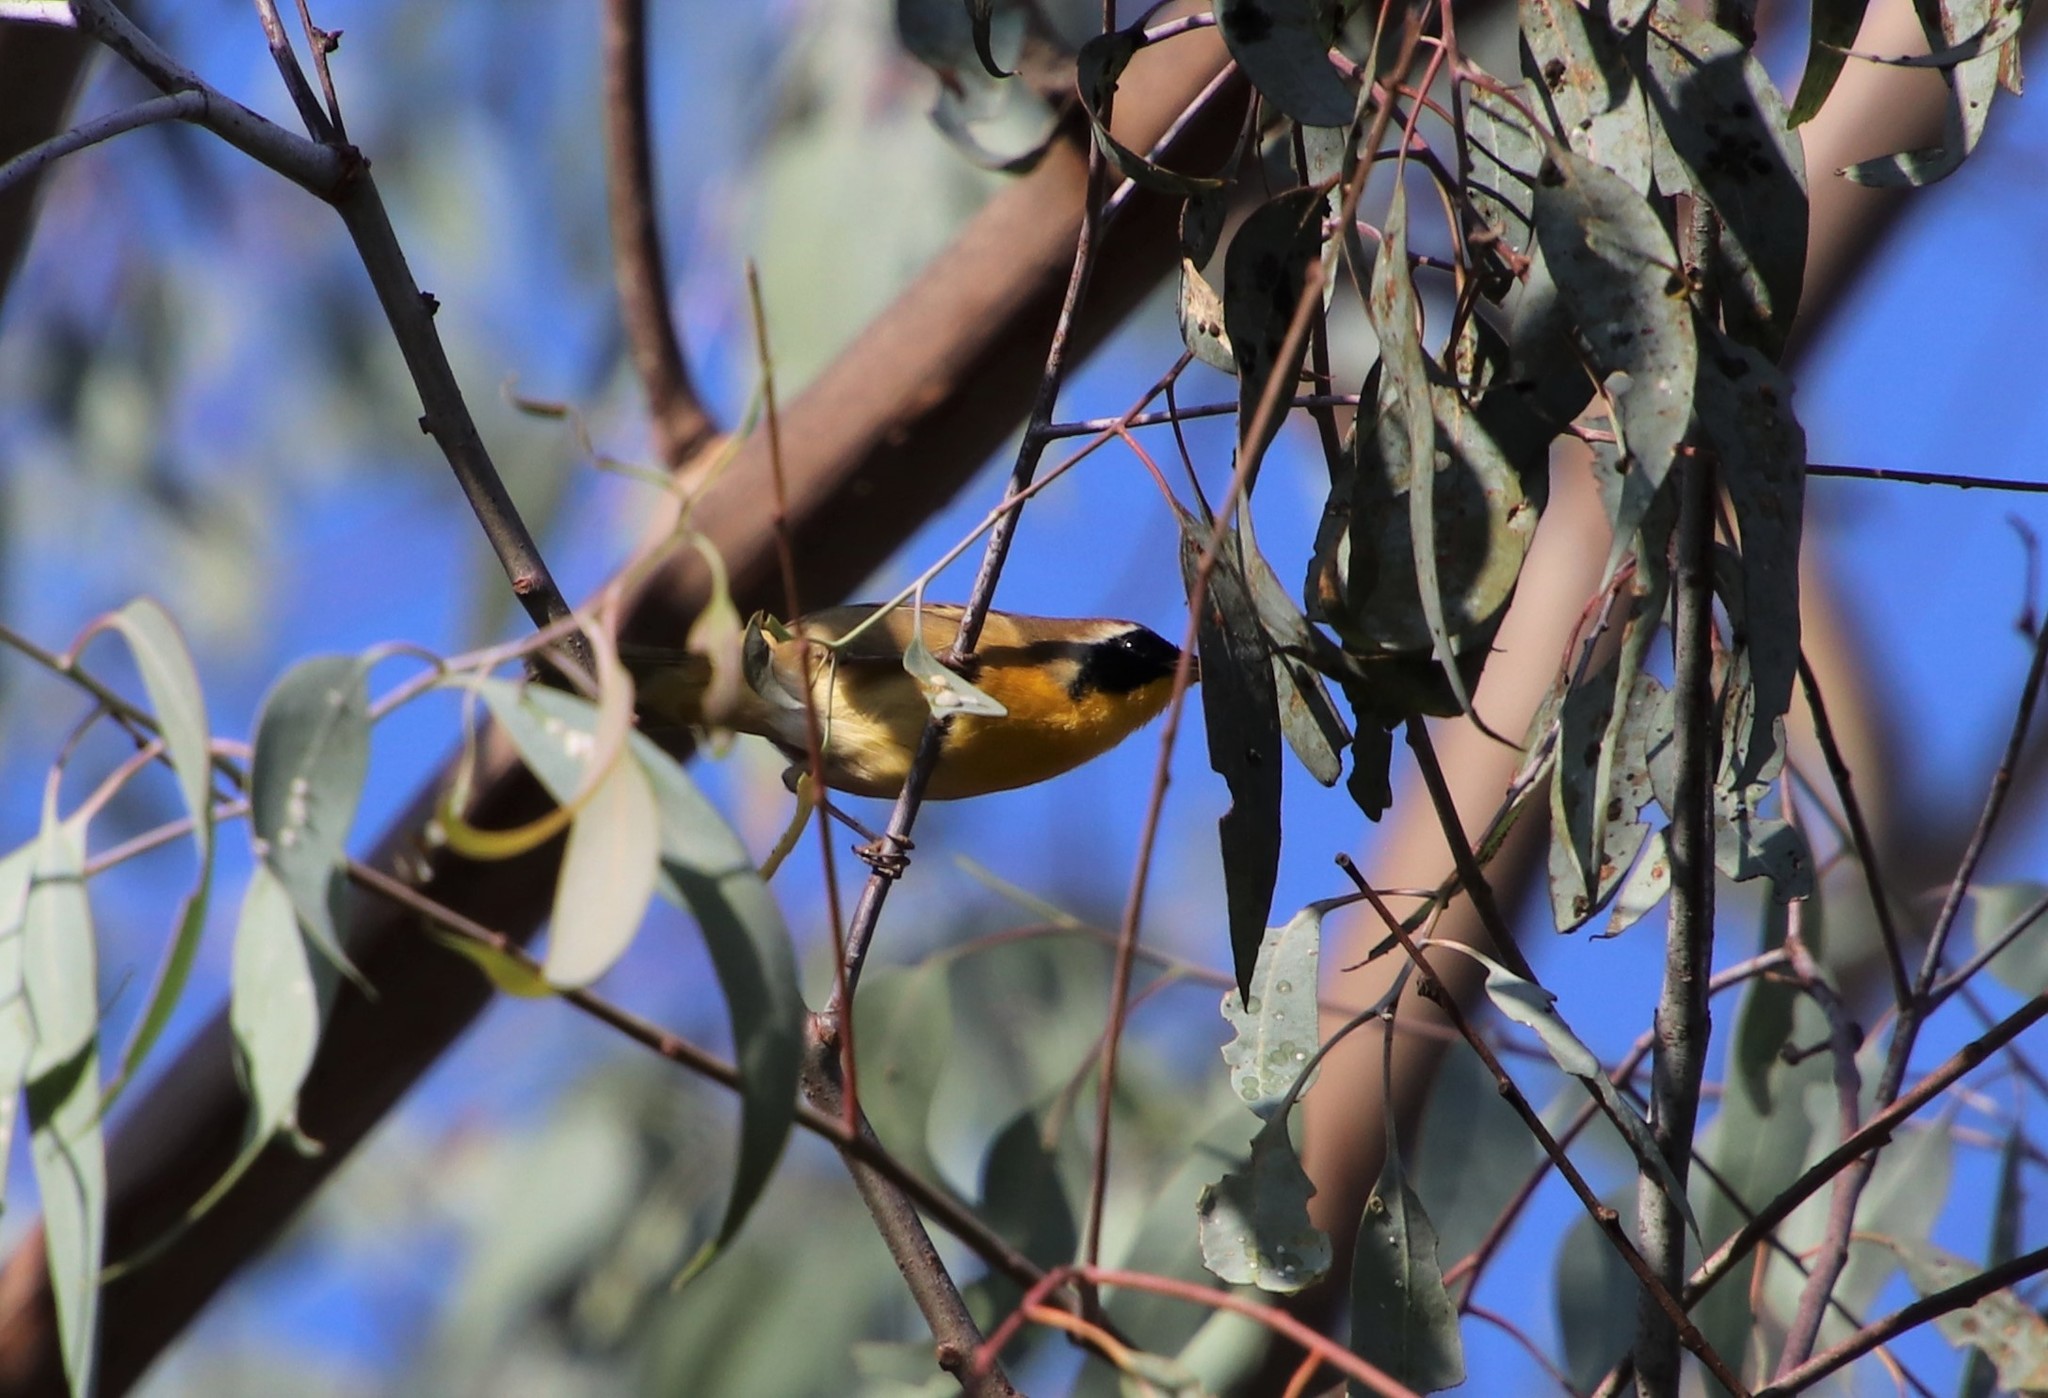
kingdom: Animalia
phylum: Chordata
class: Aves
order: Passeriformes
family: Parulidae
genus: Geothlypis
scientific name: Geothlypis trichas
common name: Common yellowthroat
